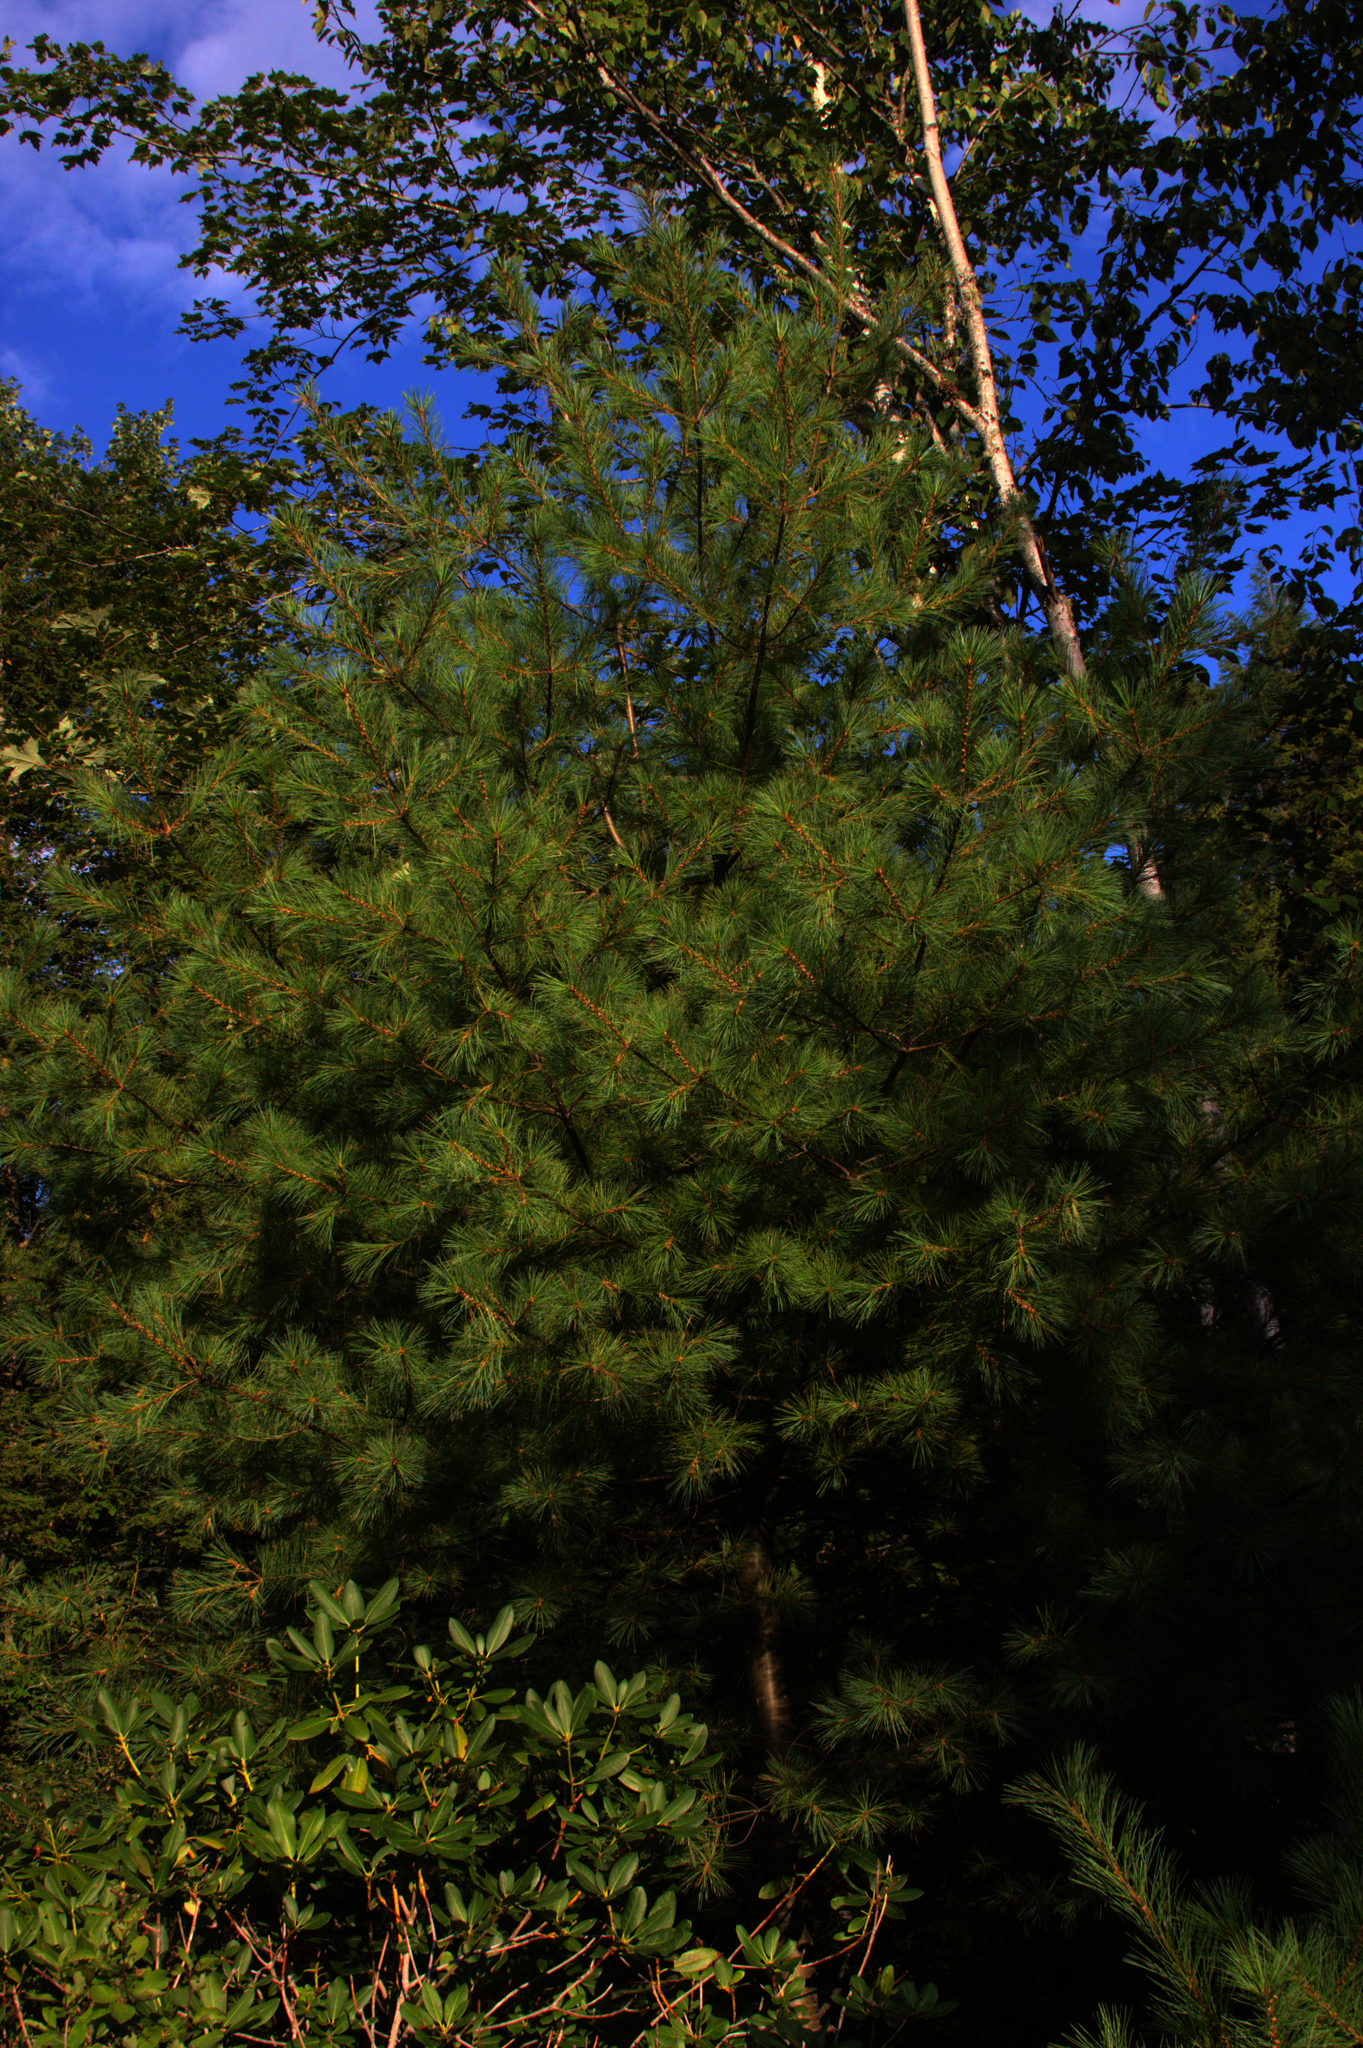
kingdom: Plantae
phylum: Tracheophyta
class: Pinopsida
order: Pinales
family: Pinaceae
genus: Pinus
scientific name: Pinus strobus
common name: Weymouth pine
